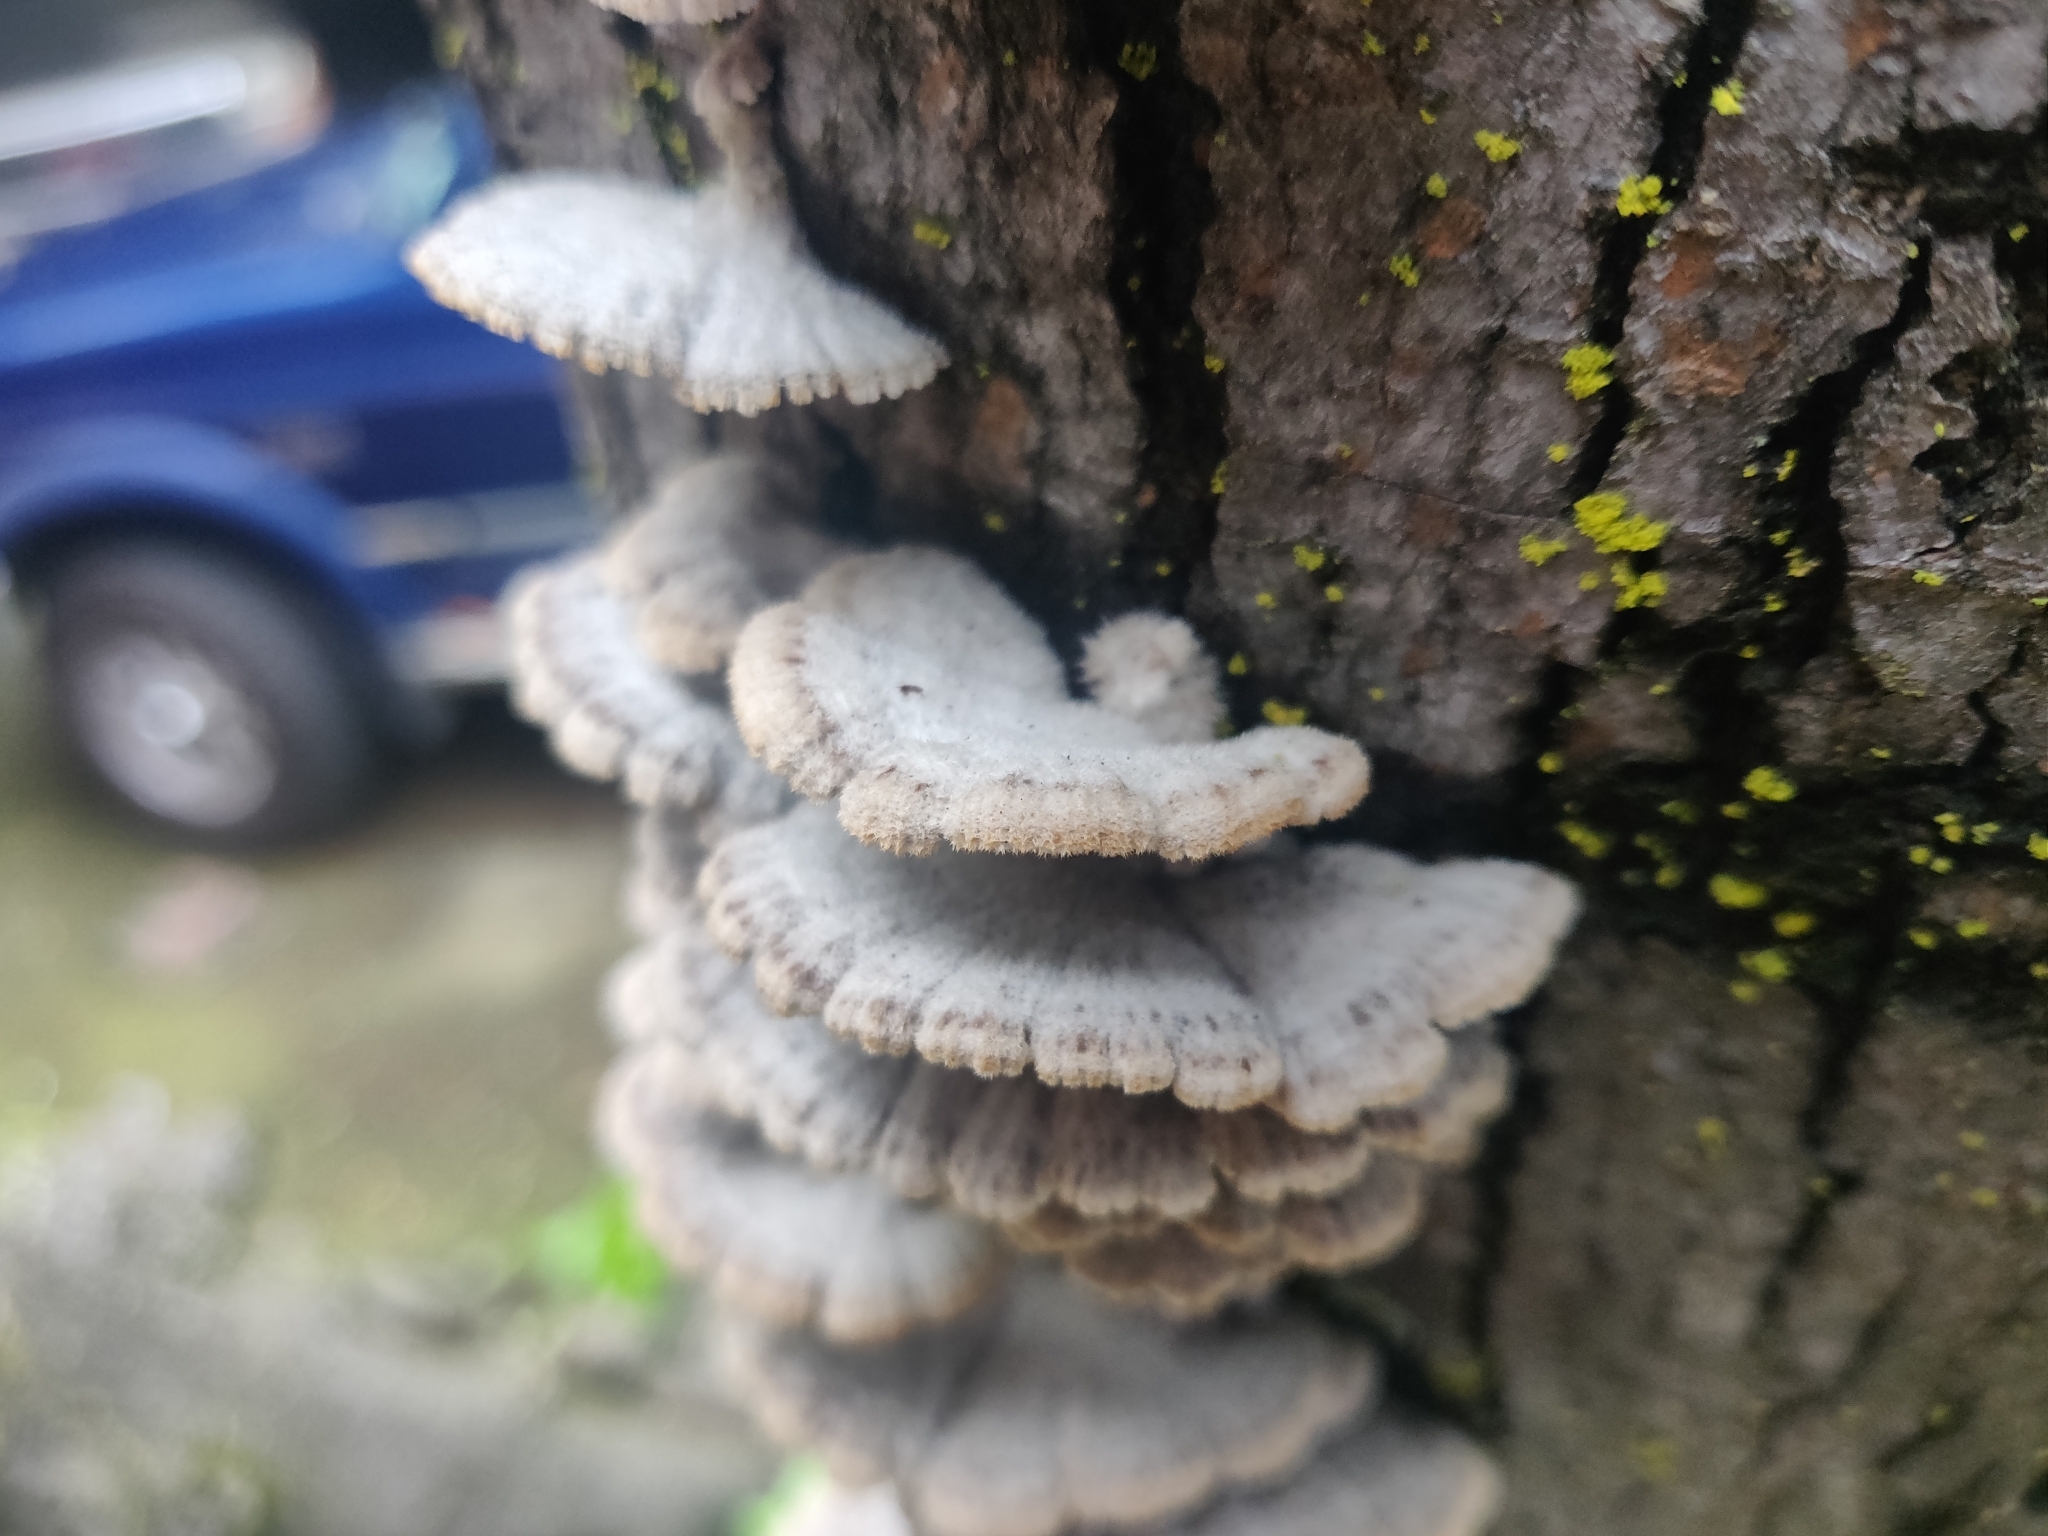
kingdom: Fungi
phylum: Basidiomycota
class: Agaricomycetes
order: Agaricales
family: Schizophyllaceae
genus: Schizophyllum
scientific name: Schizophyllum commune
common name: Common porecrust
